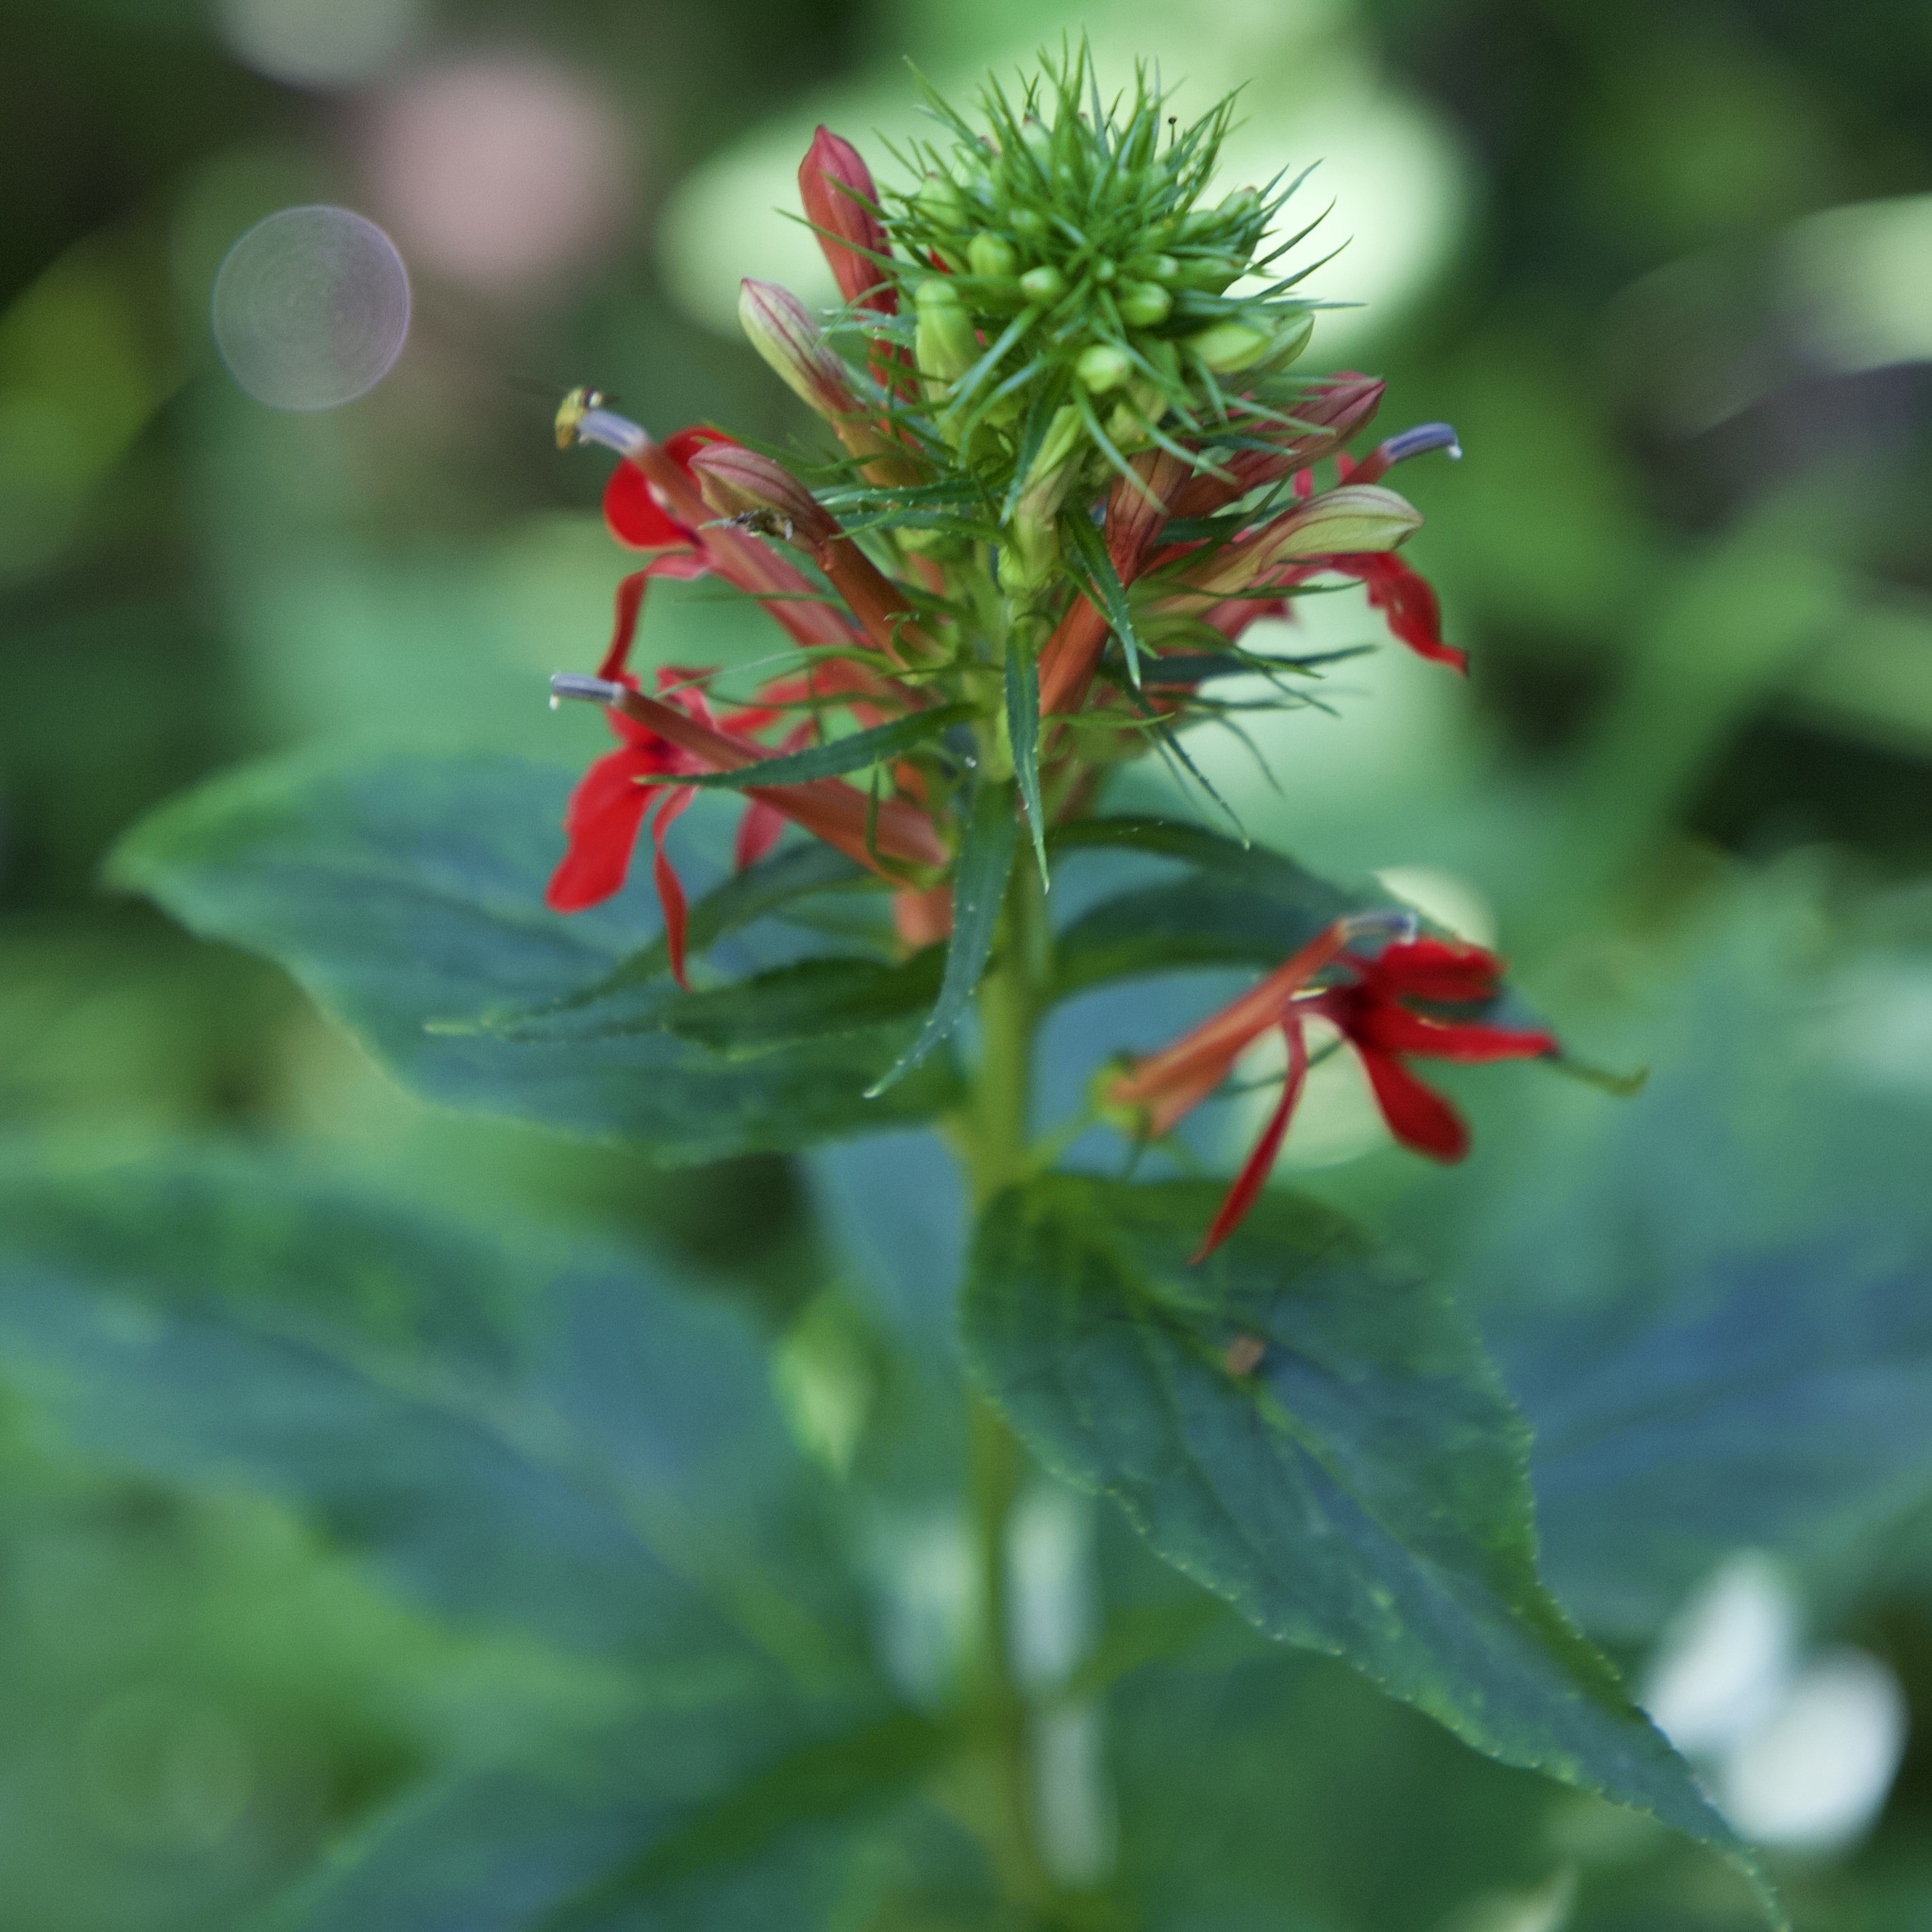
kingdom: Plantae
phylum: Tracheophyta
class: Magnoliopsida
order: Asterales
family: Campanulaceae
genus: Lobelia
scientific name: Lobelia cardinalis
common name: Cardinal flower
